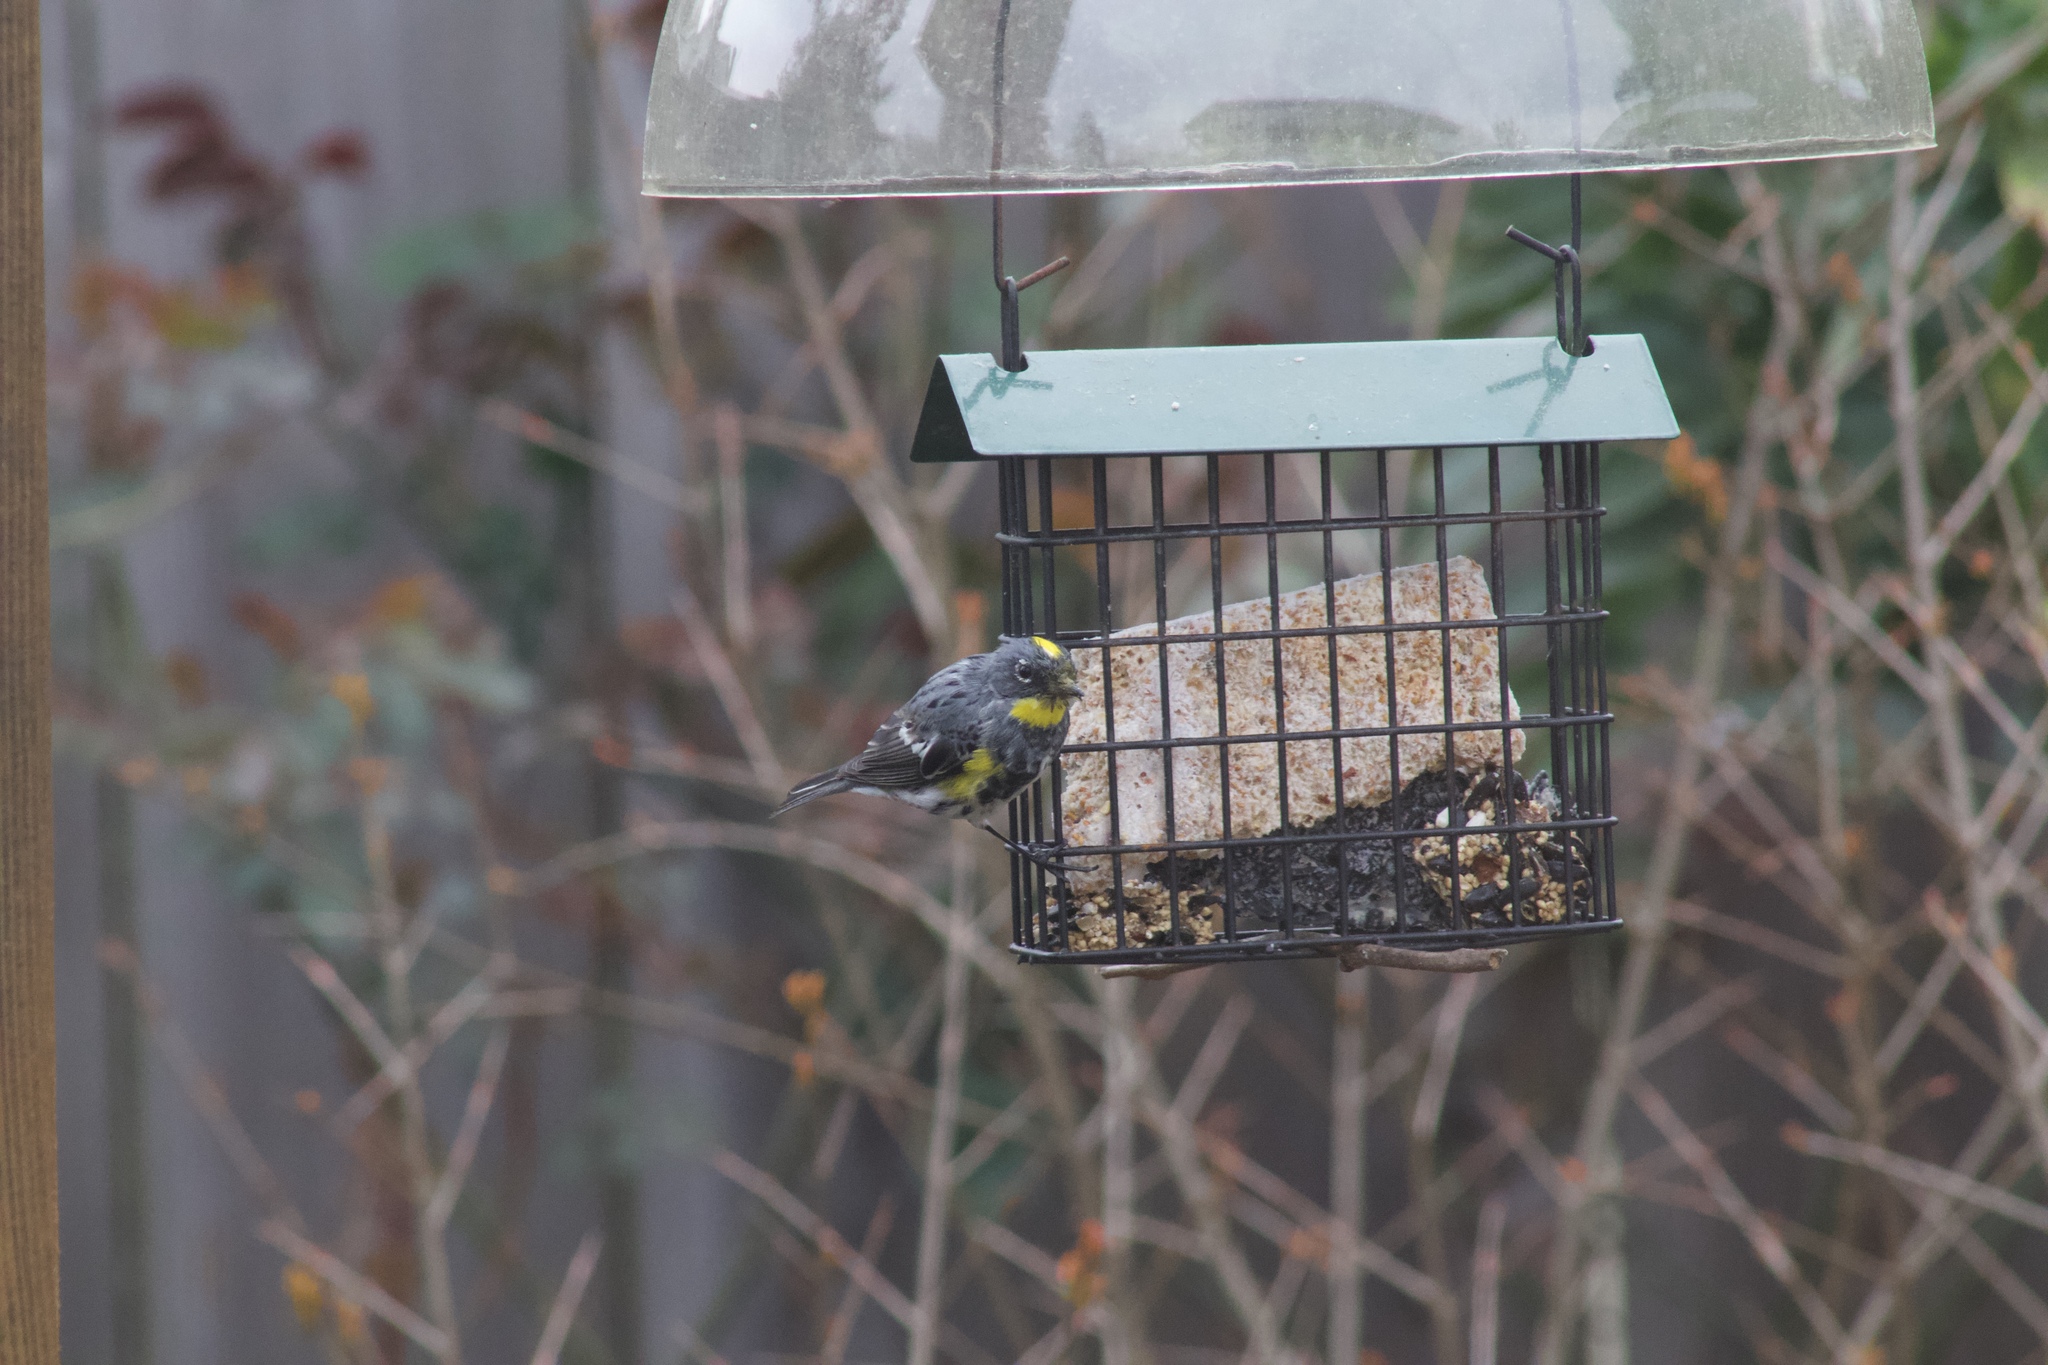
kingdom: Animalia
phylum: Chordata
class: Aves
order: Passeriformes
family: Parulidae
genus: Setophaga
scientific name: Setophaga coronata
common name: Myrtle warbler
